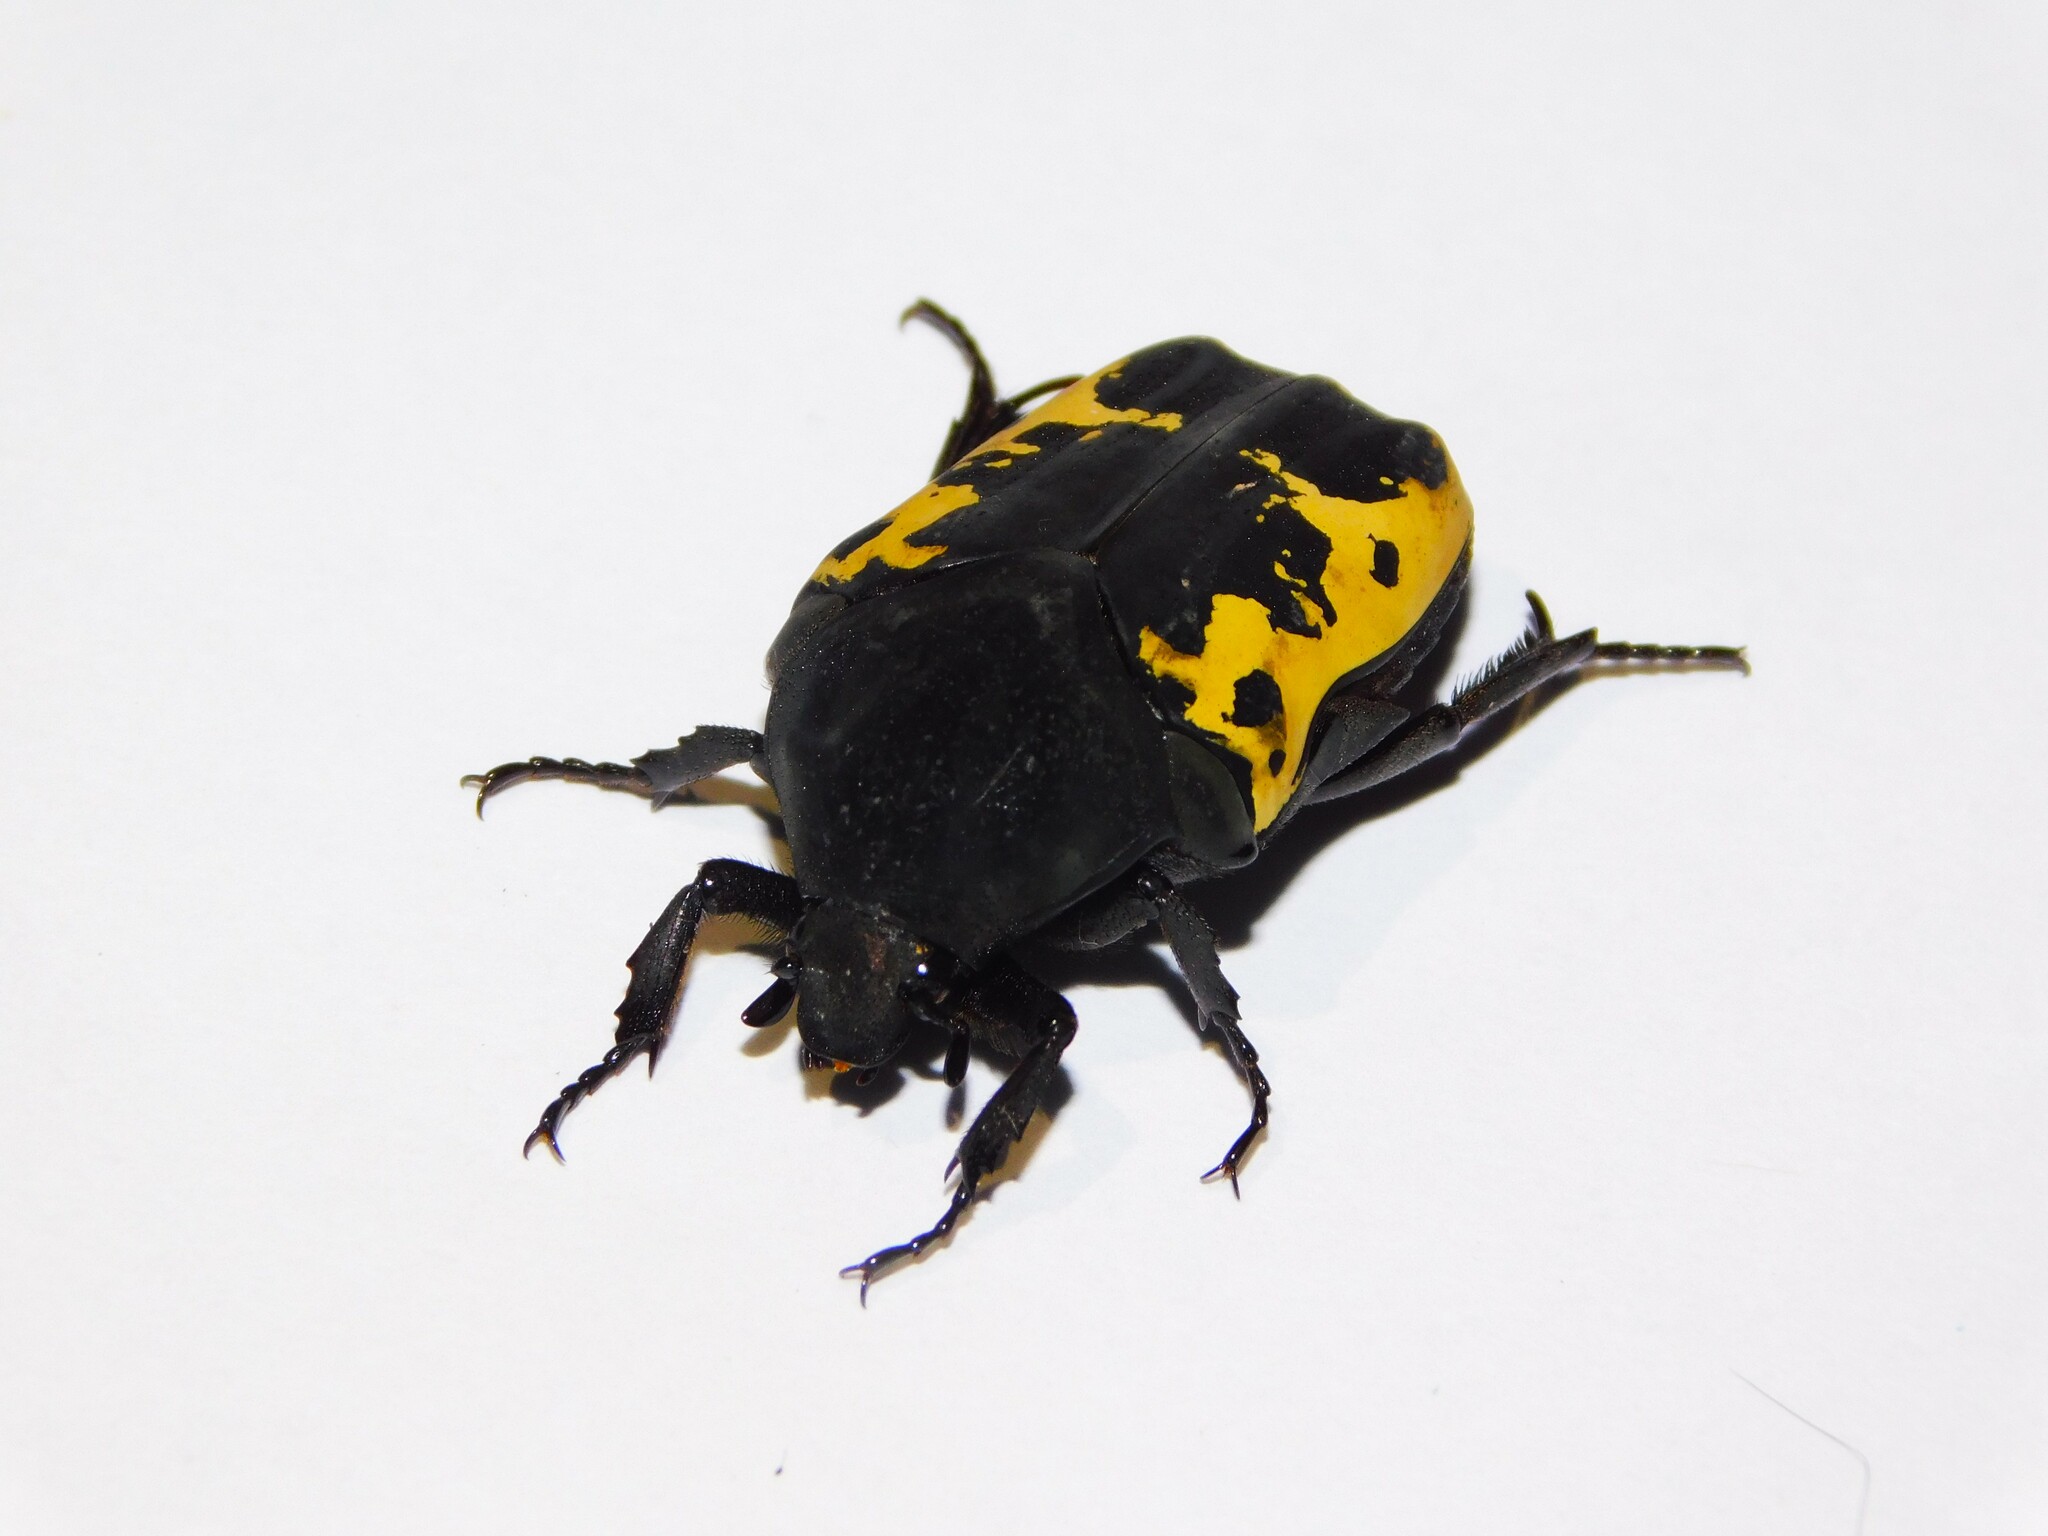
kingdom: Animalia
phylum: Arthropoda
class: Insecta
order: Coleoptera
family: Scarabaeidae
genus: Gymnetis
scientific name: Gymnetis pudibunda
